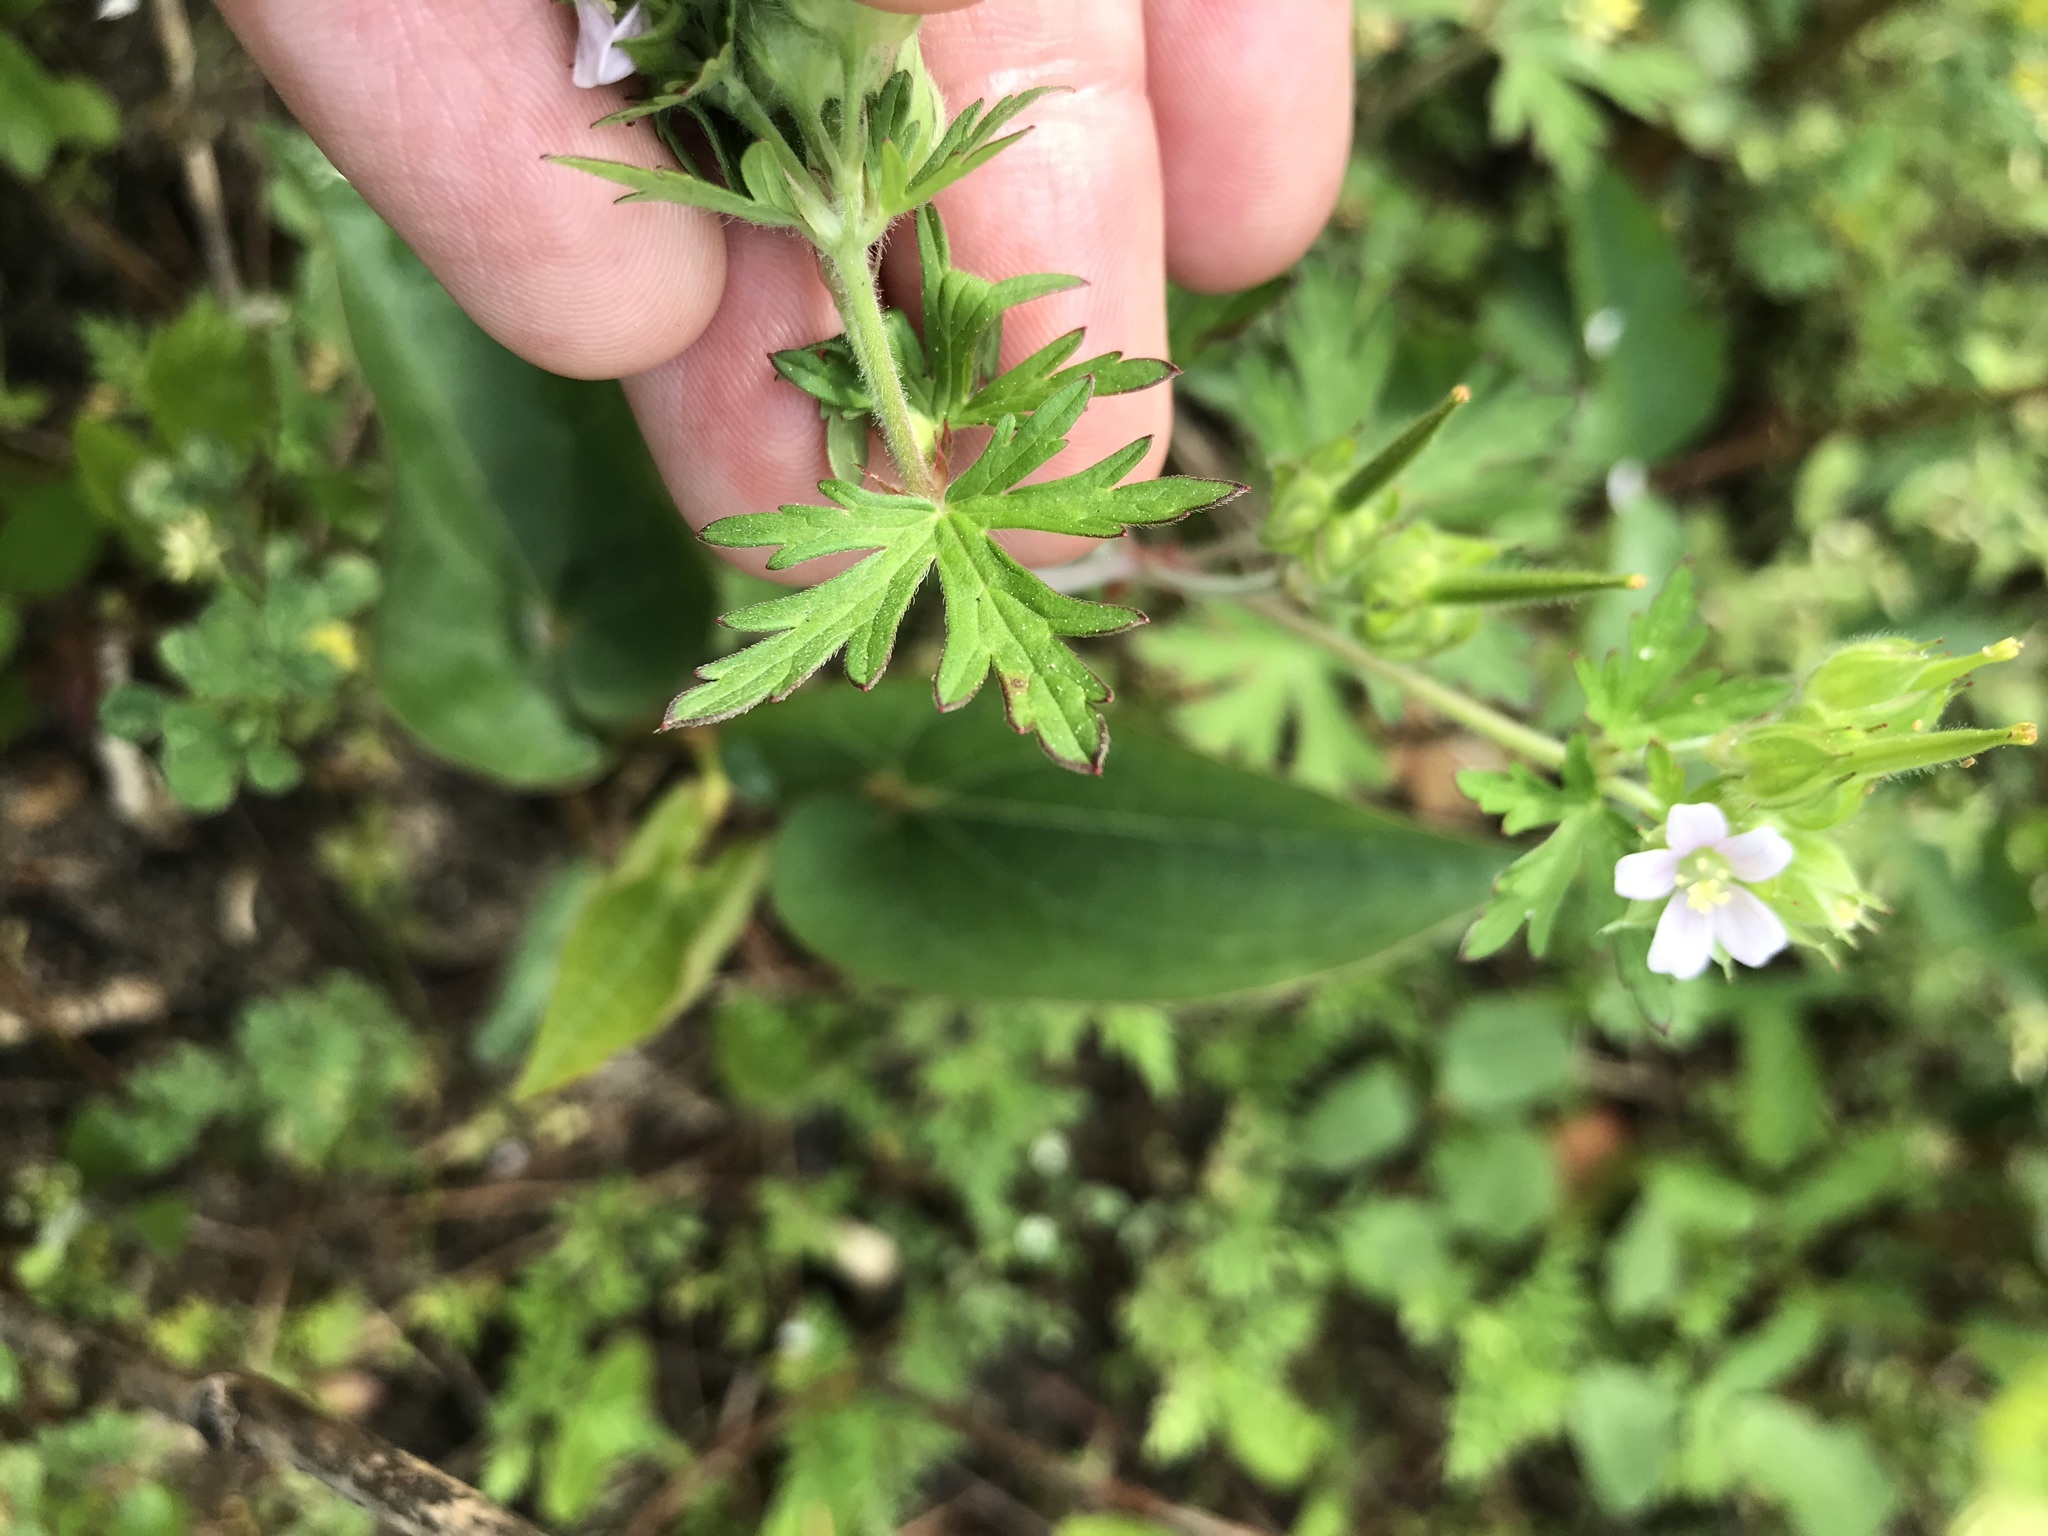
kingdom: Plantae
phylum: Tracheophyta
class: Magnoliopsida
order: Geraniales
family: Geraniaceae
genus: Geranium
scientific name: Geranium carolinianum
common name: Carolina crane's-bill
